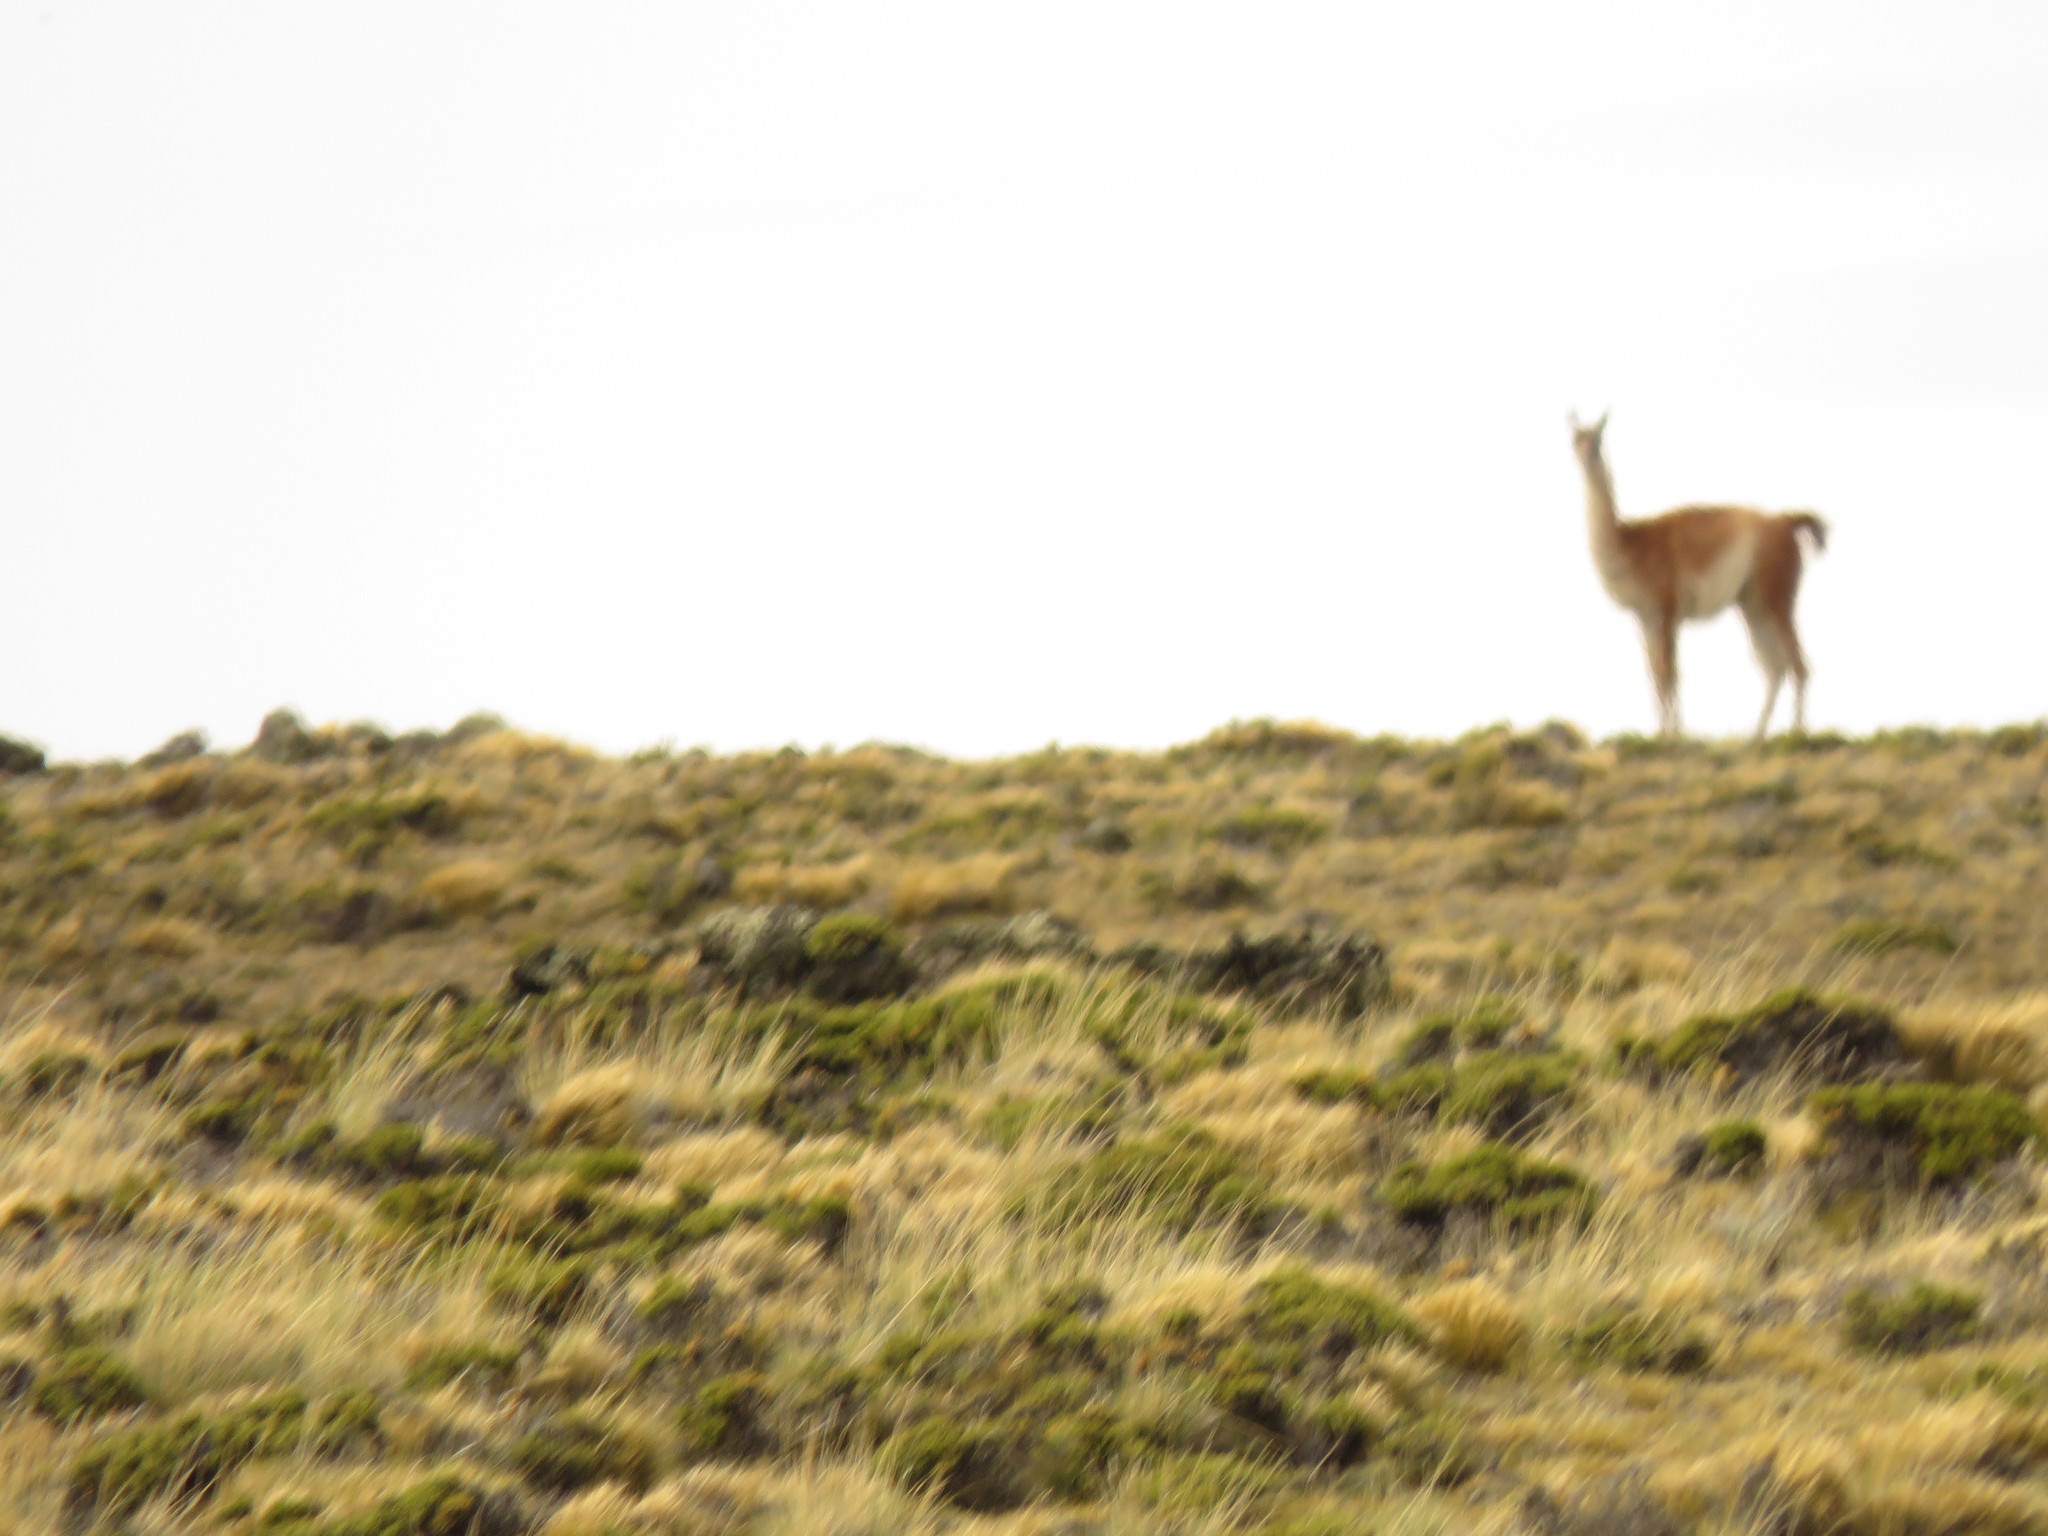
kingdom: Animalia
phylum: Chordata
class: Mammalia
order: Artiodactyla
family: Camelidae
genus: Lama
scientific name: Lama glama
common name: Llama
